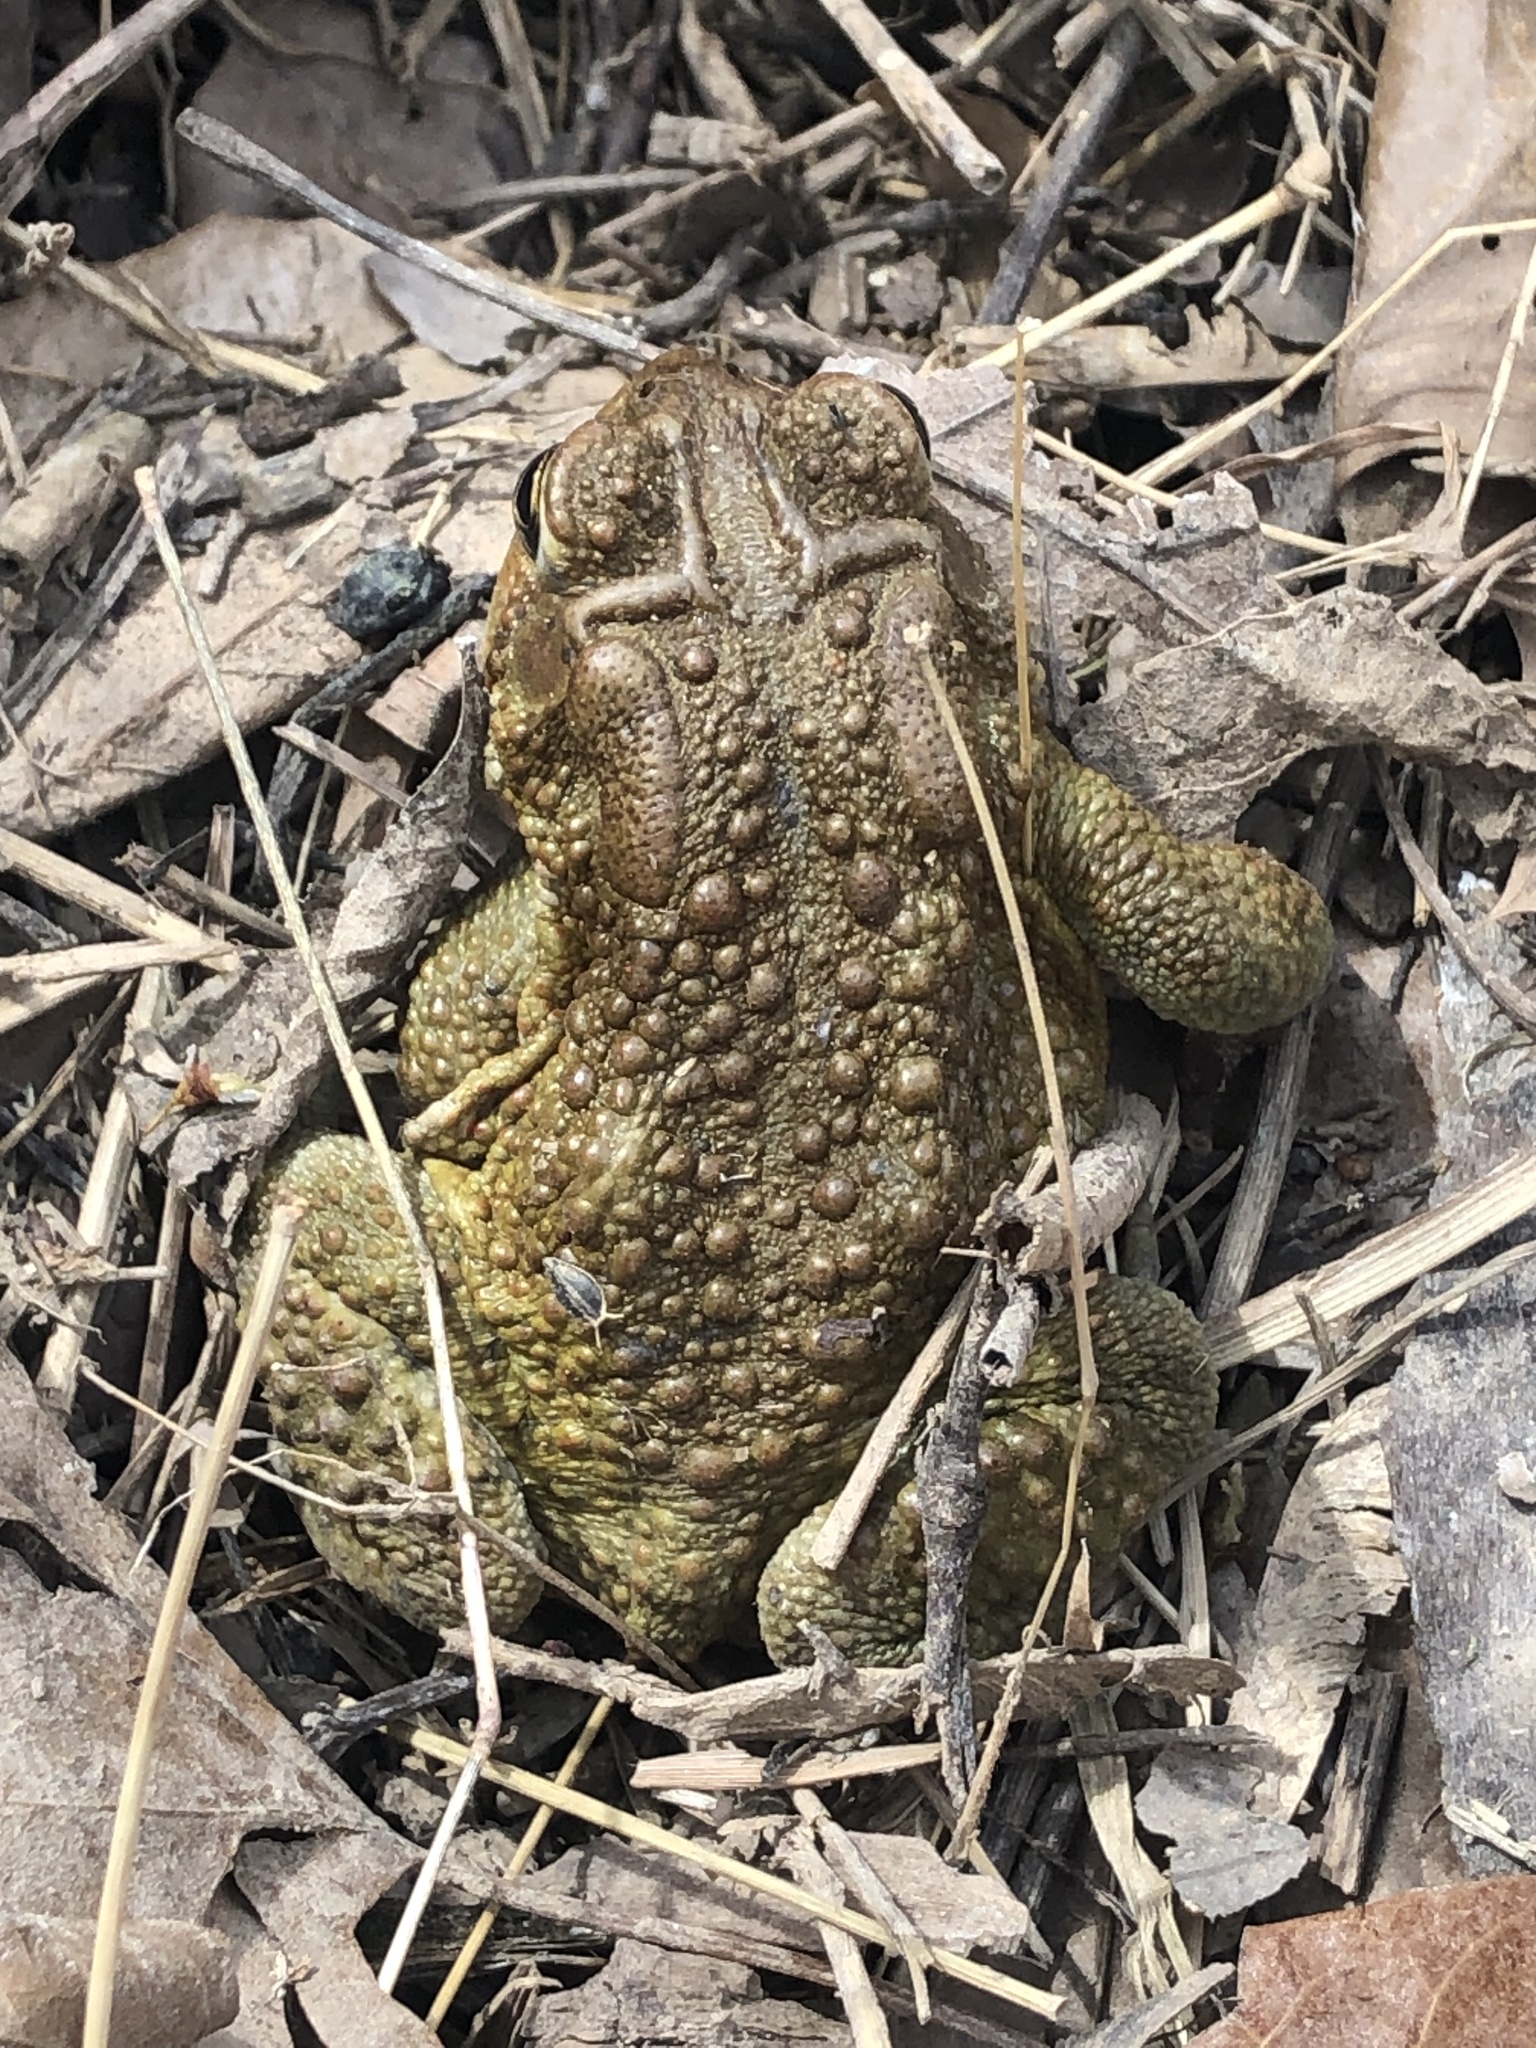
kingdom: Animalia
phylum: Chordata
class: Amphibia
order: Anura
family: Bufonidae
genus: Anaxyrus
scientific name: Anaxyrus americanus
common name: American toad
